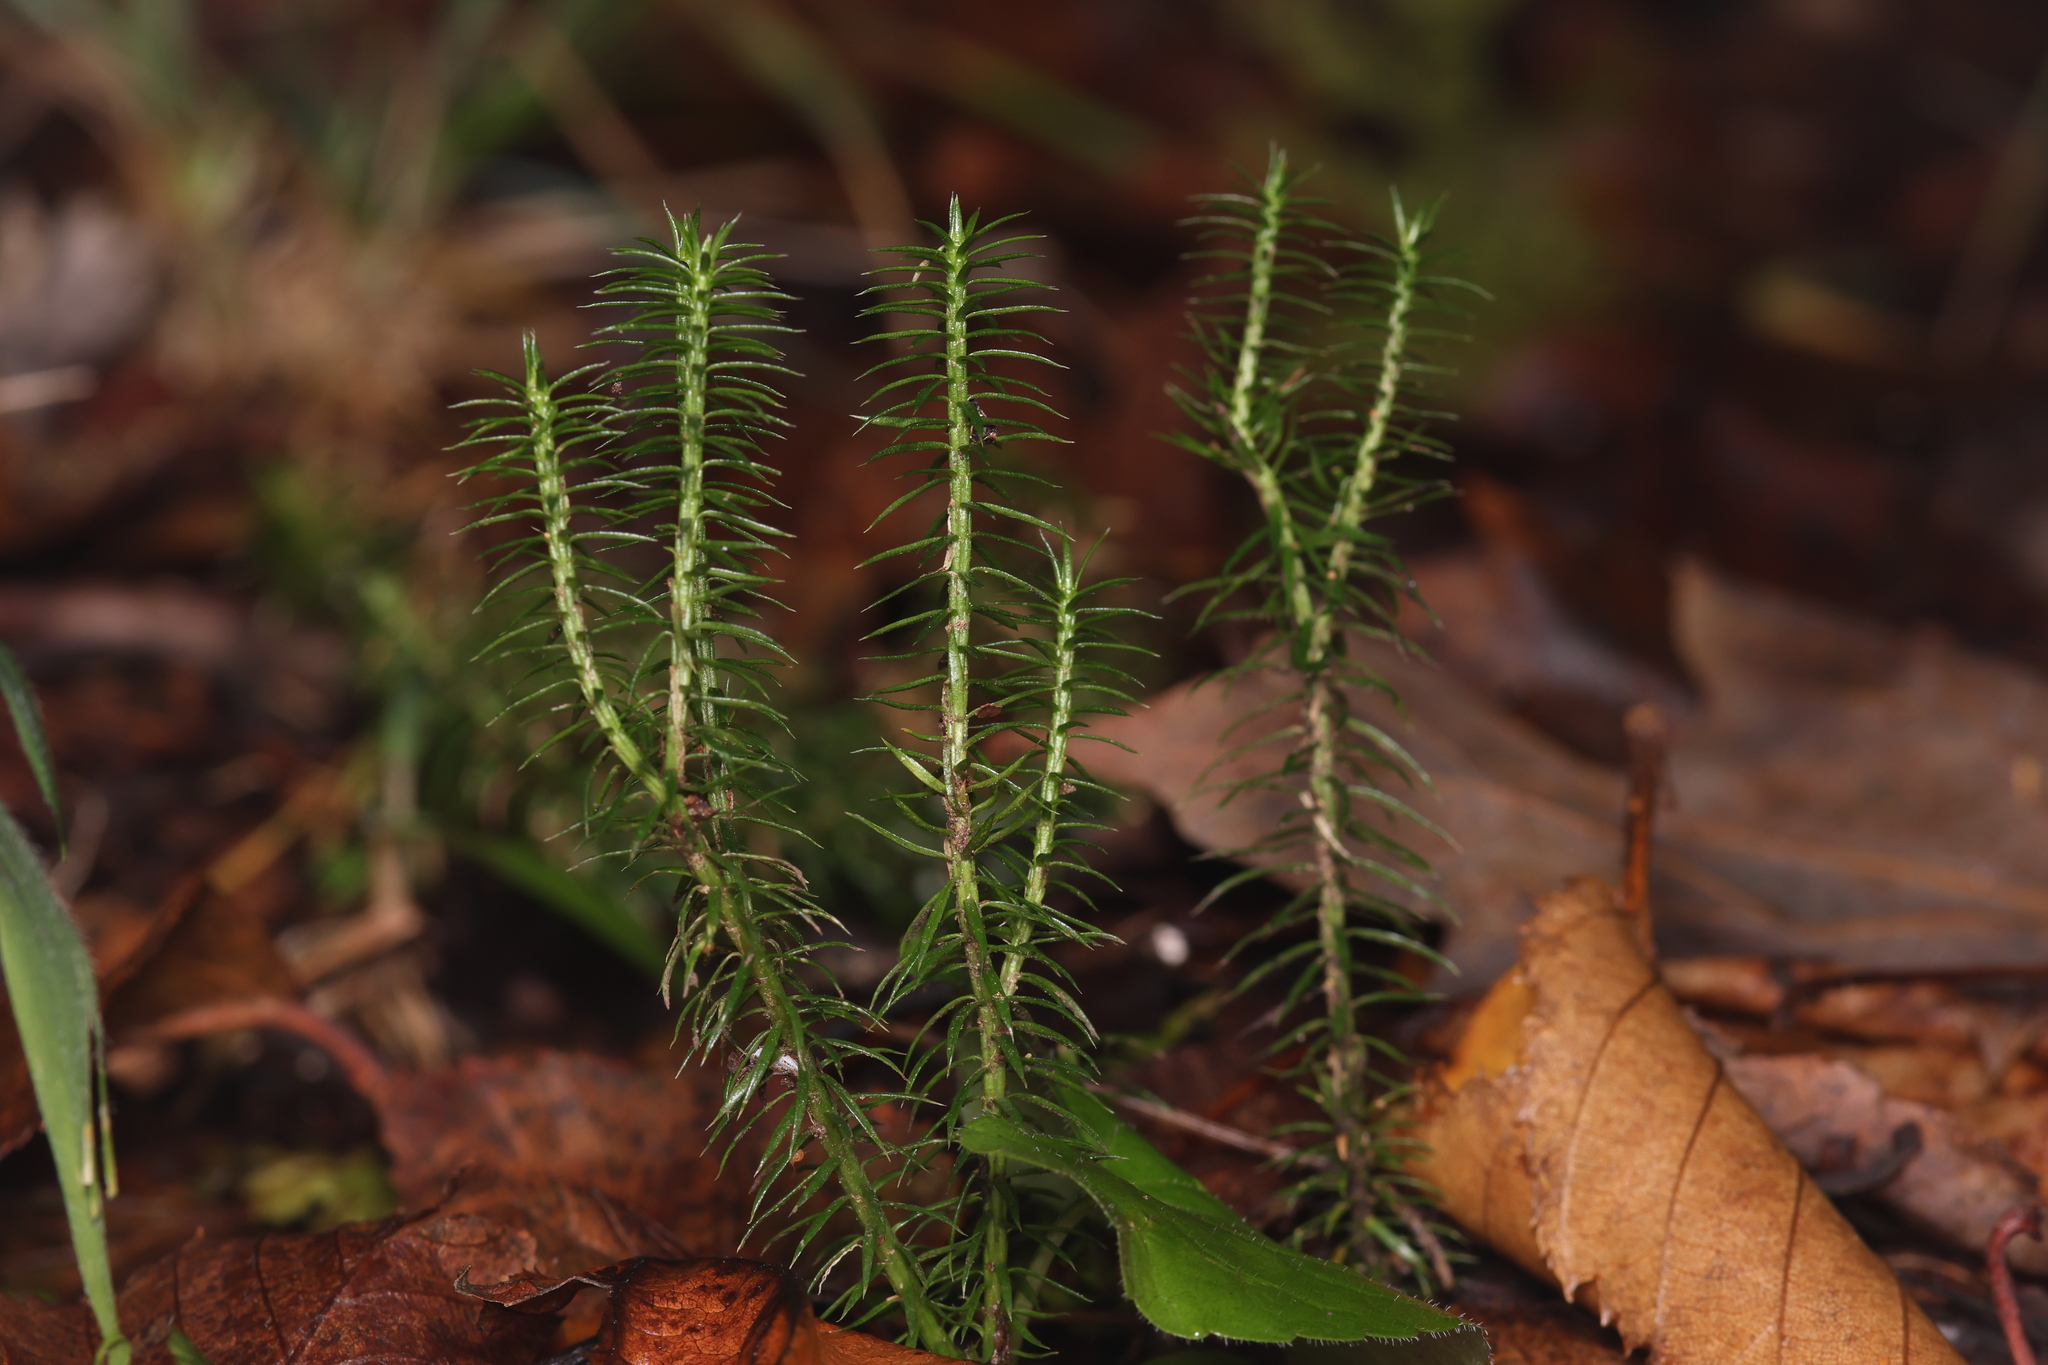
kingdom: Plantae
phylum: Tracheophyta
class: Lycopodiopsida
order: Lycopodiales
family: Lycopodiaceae
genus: Spinulum
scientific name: Spinulum annotinum
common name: Interrupted club-moss
